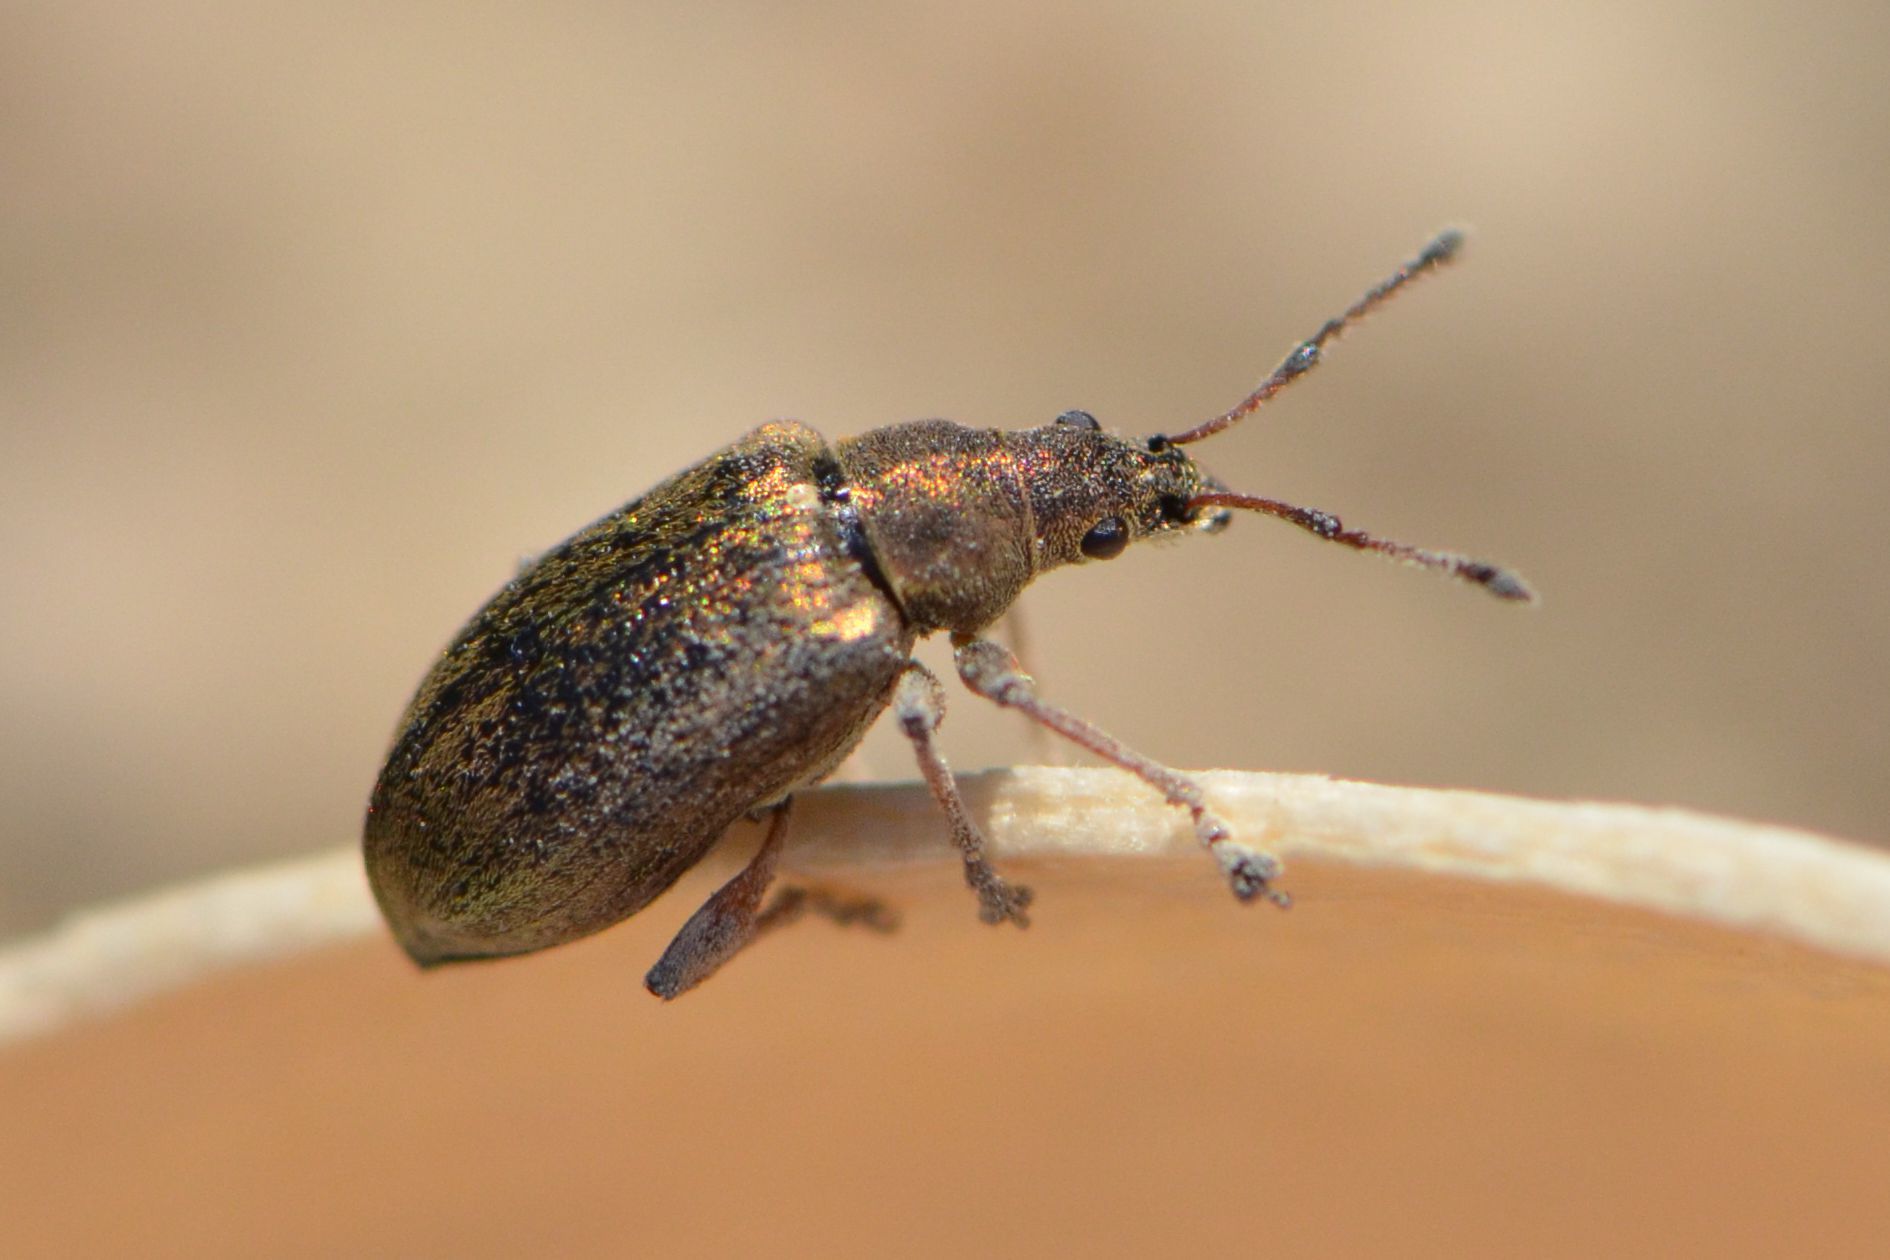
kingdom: Animalia
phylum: Arthropoda
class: Insecta
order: Coleoptera
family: Curculionidae
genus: Phyllobius
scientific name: Phyllobius pyri
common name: Common leaf weevil
